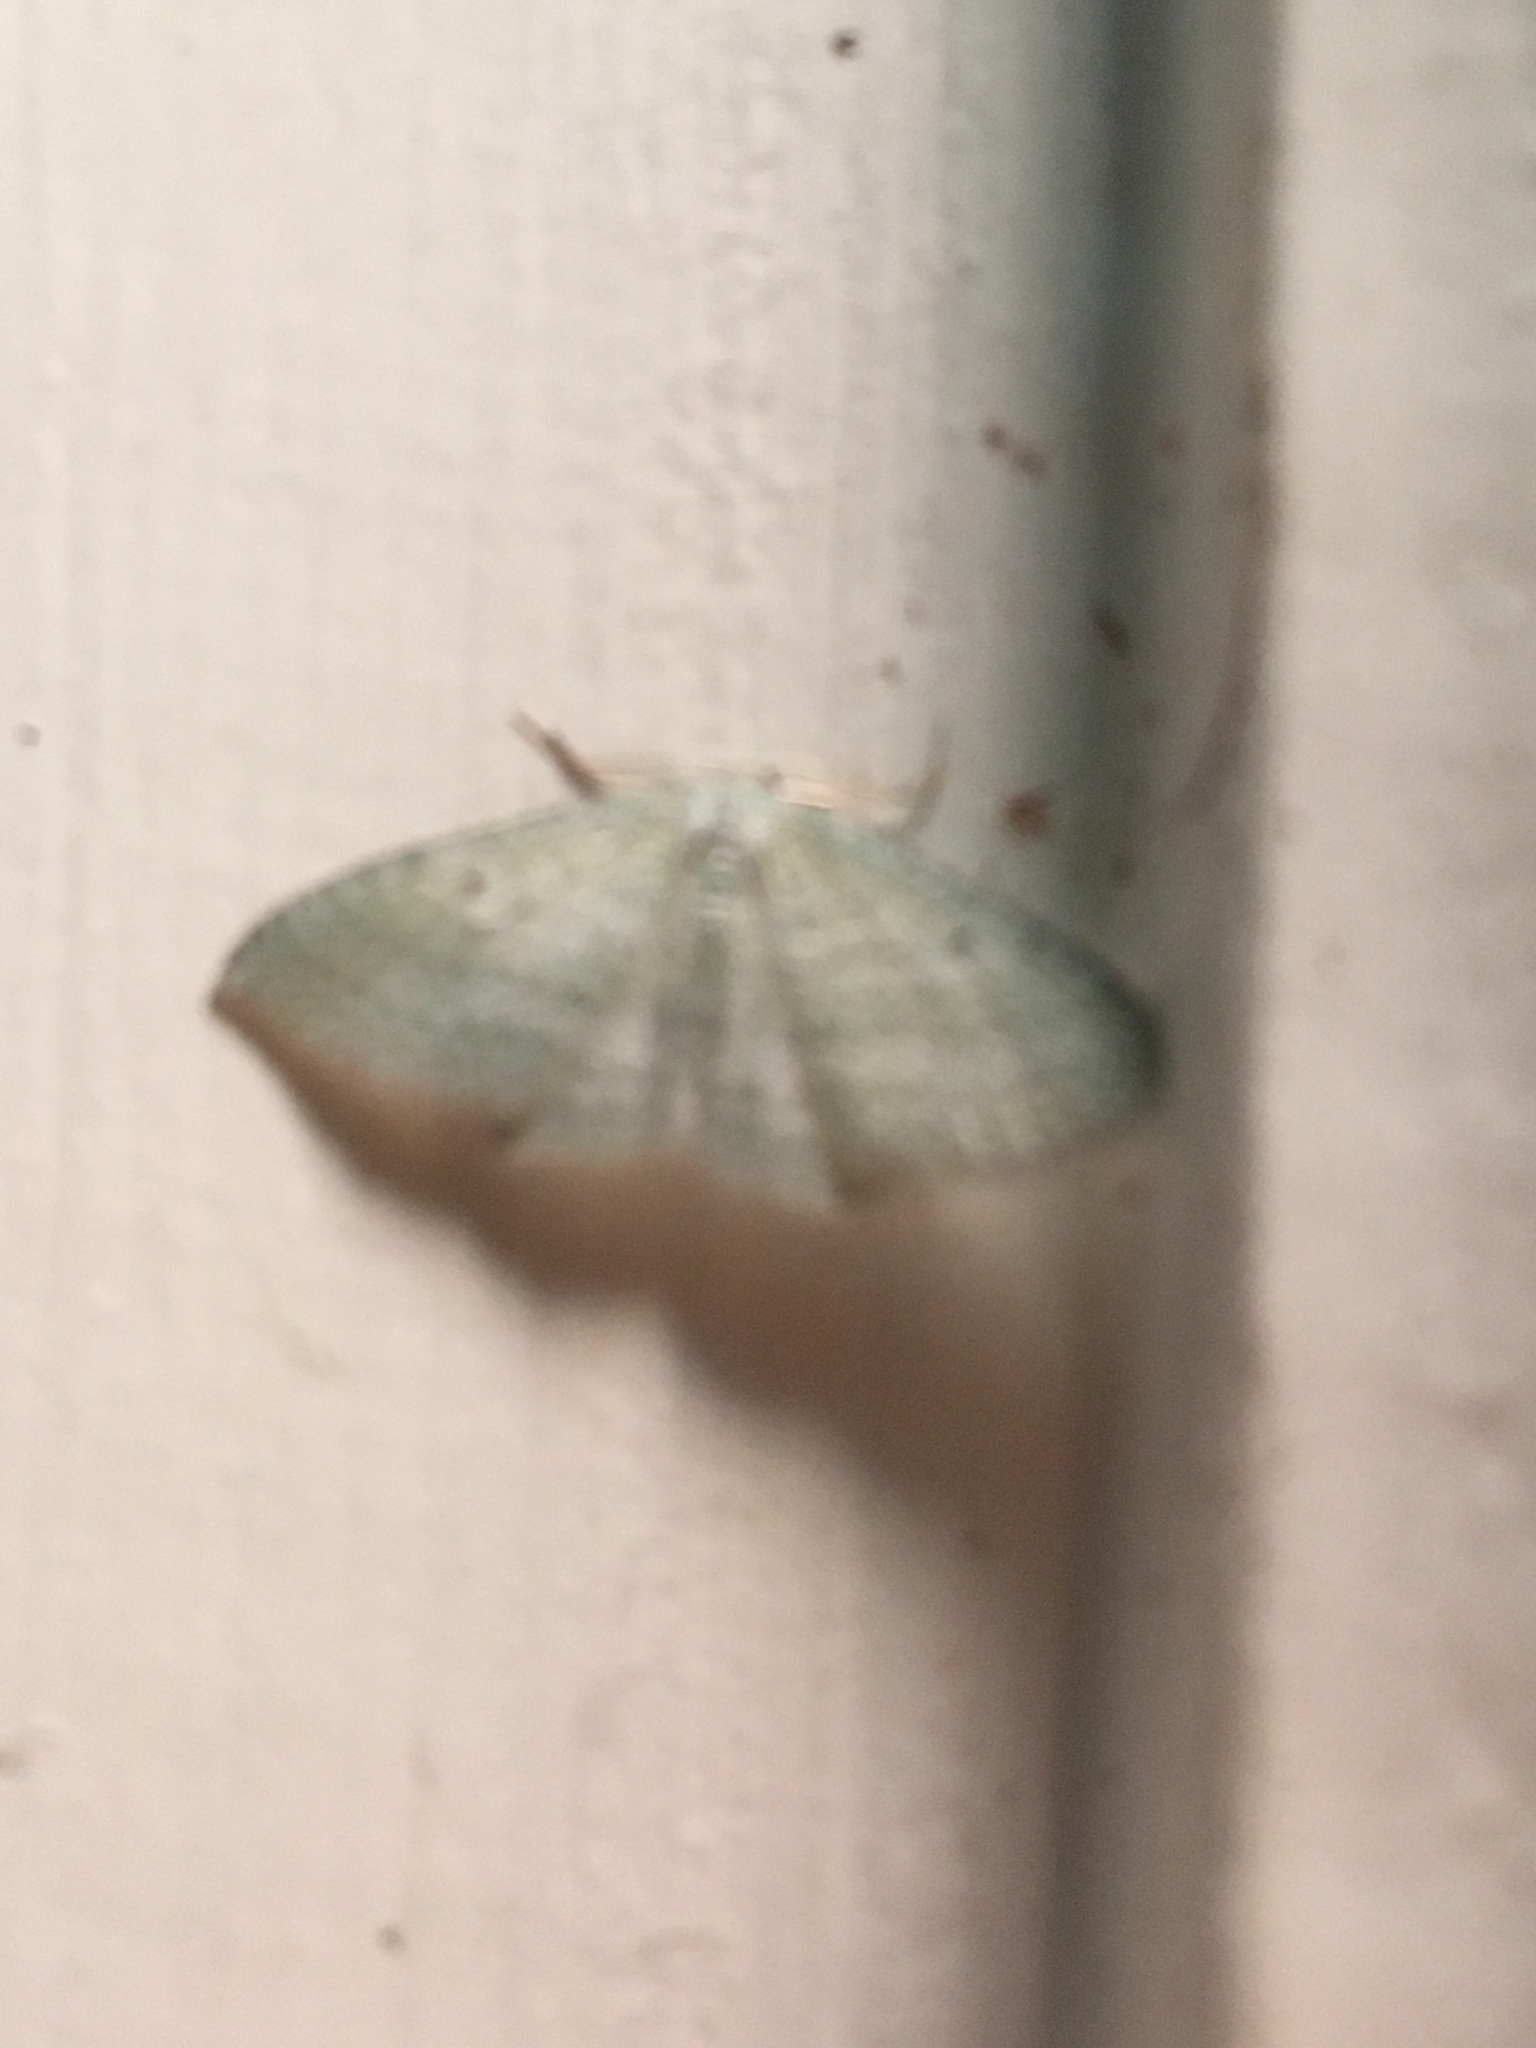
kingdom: Animalia
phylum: Arthropoda
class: Insecta
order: Lepidoptera
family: Geometridae
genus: Poecilasthena
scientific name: Poecilasthena pulchraria
